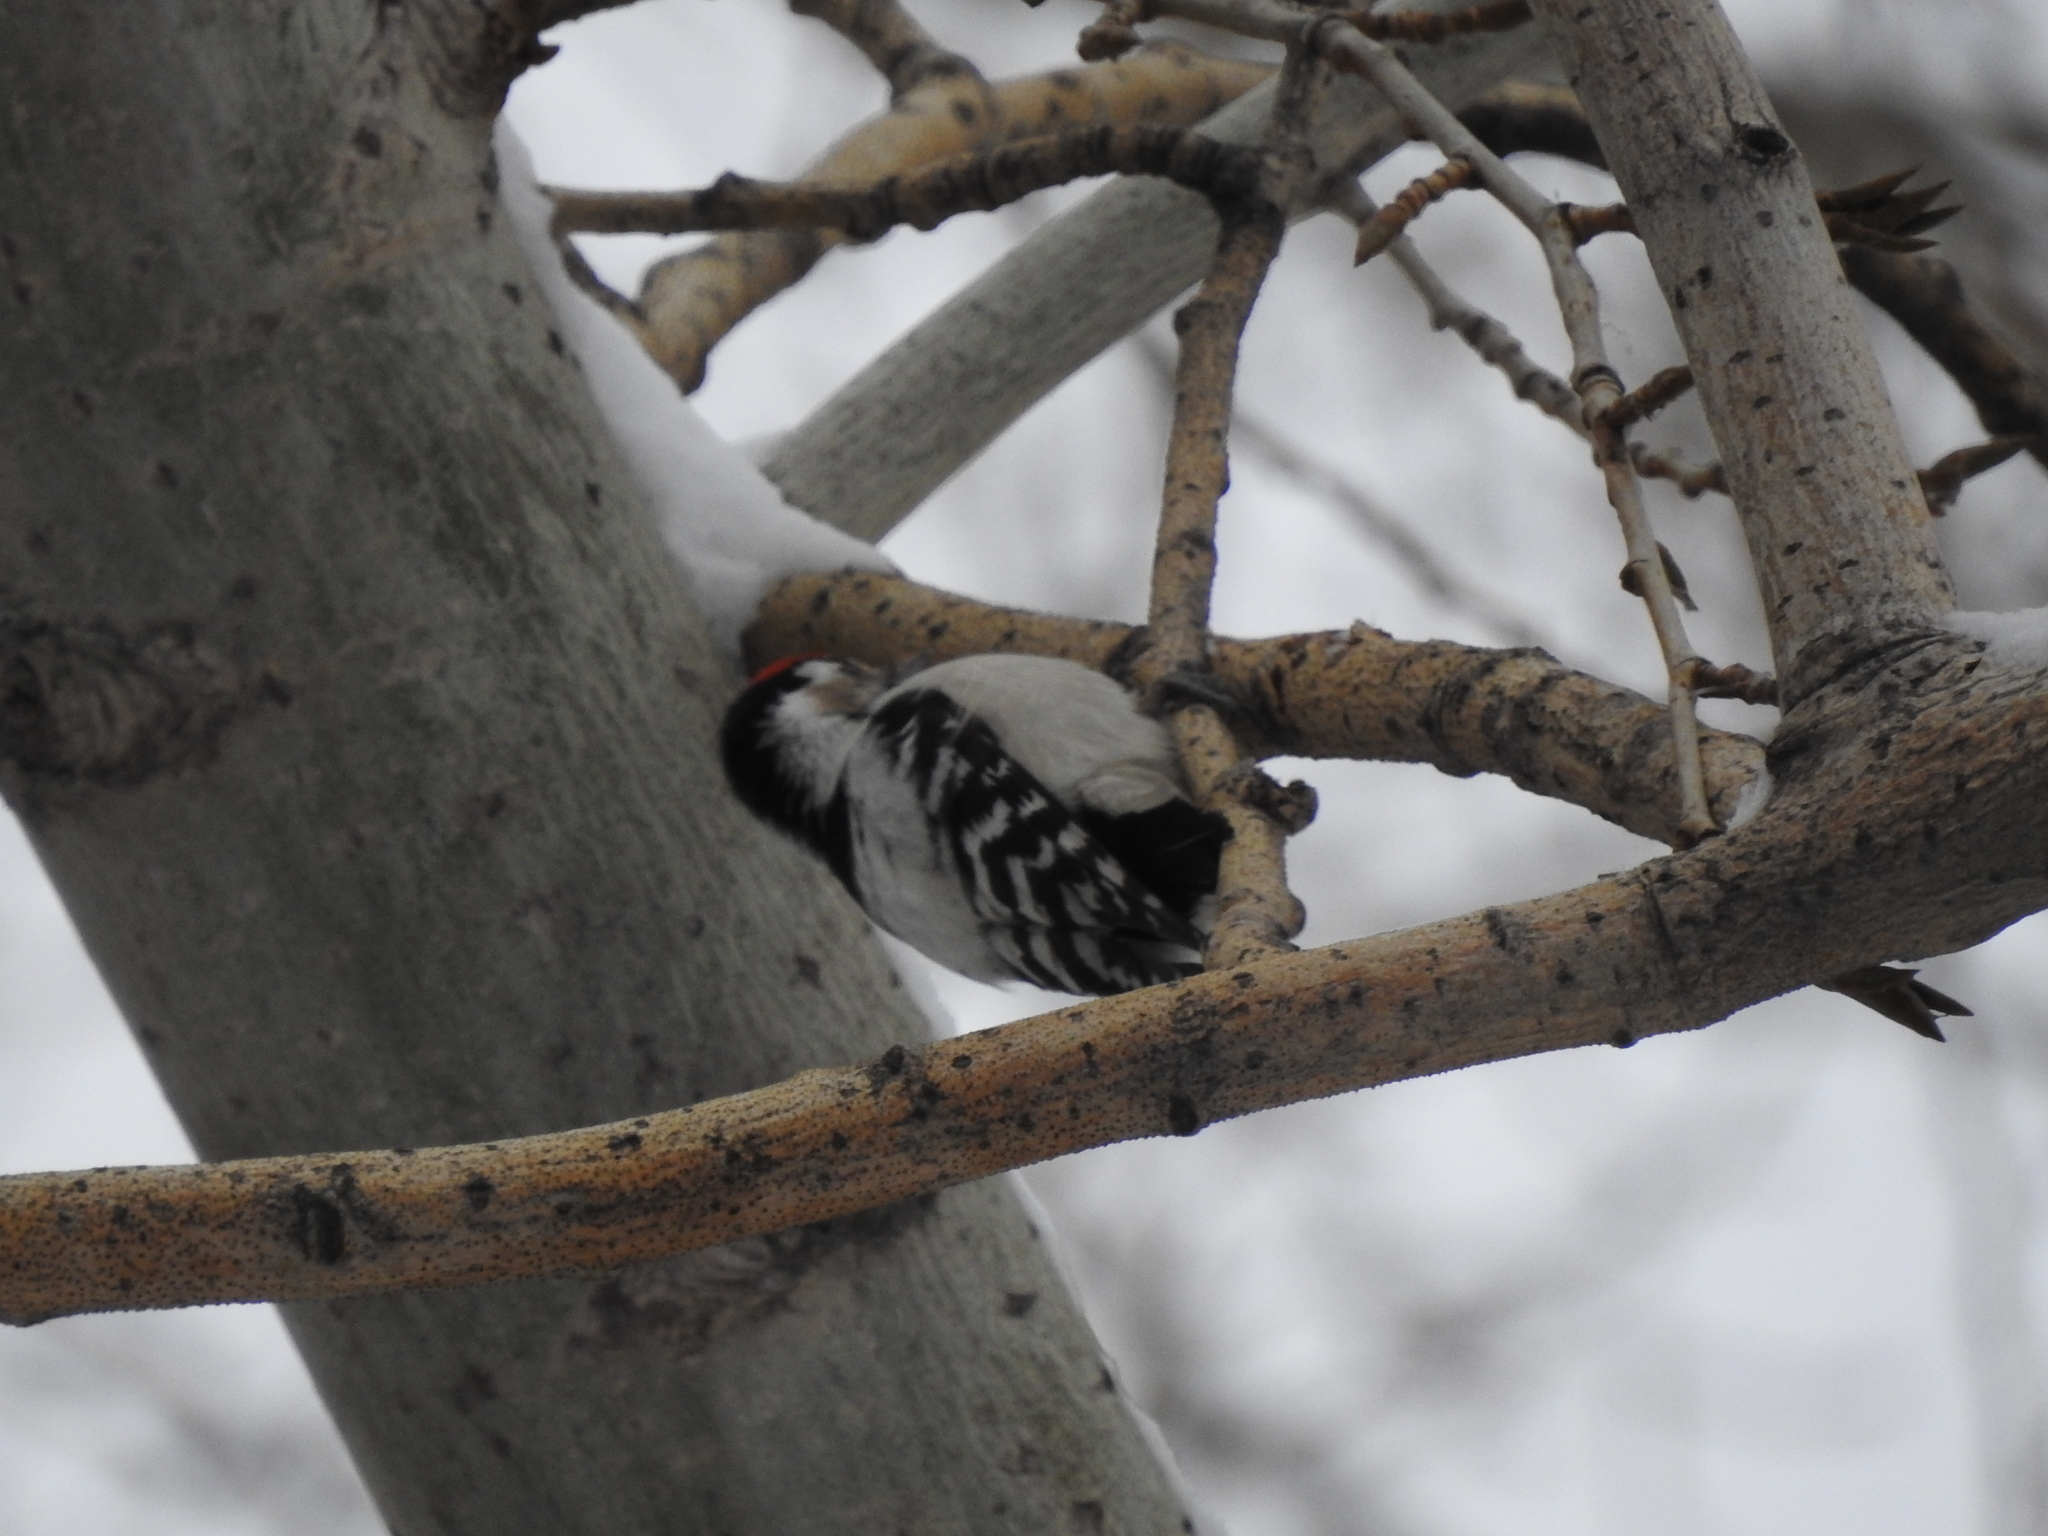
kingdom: Animalia
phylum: Chordata
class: Aves
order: Piciformes
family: Picidae
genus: Dryobates
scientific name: Dryobates minor
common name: Lesser spotted woodpecker
